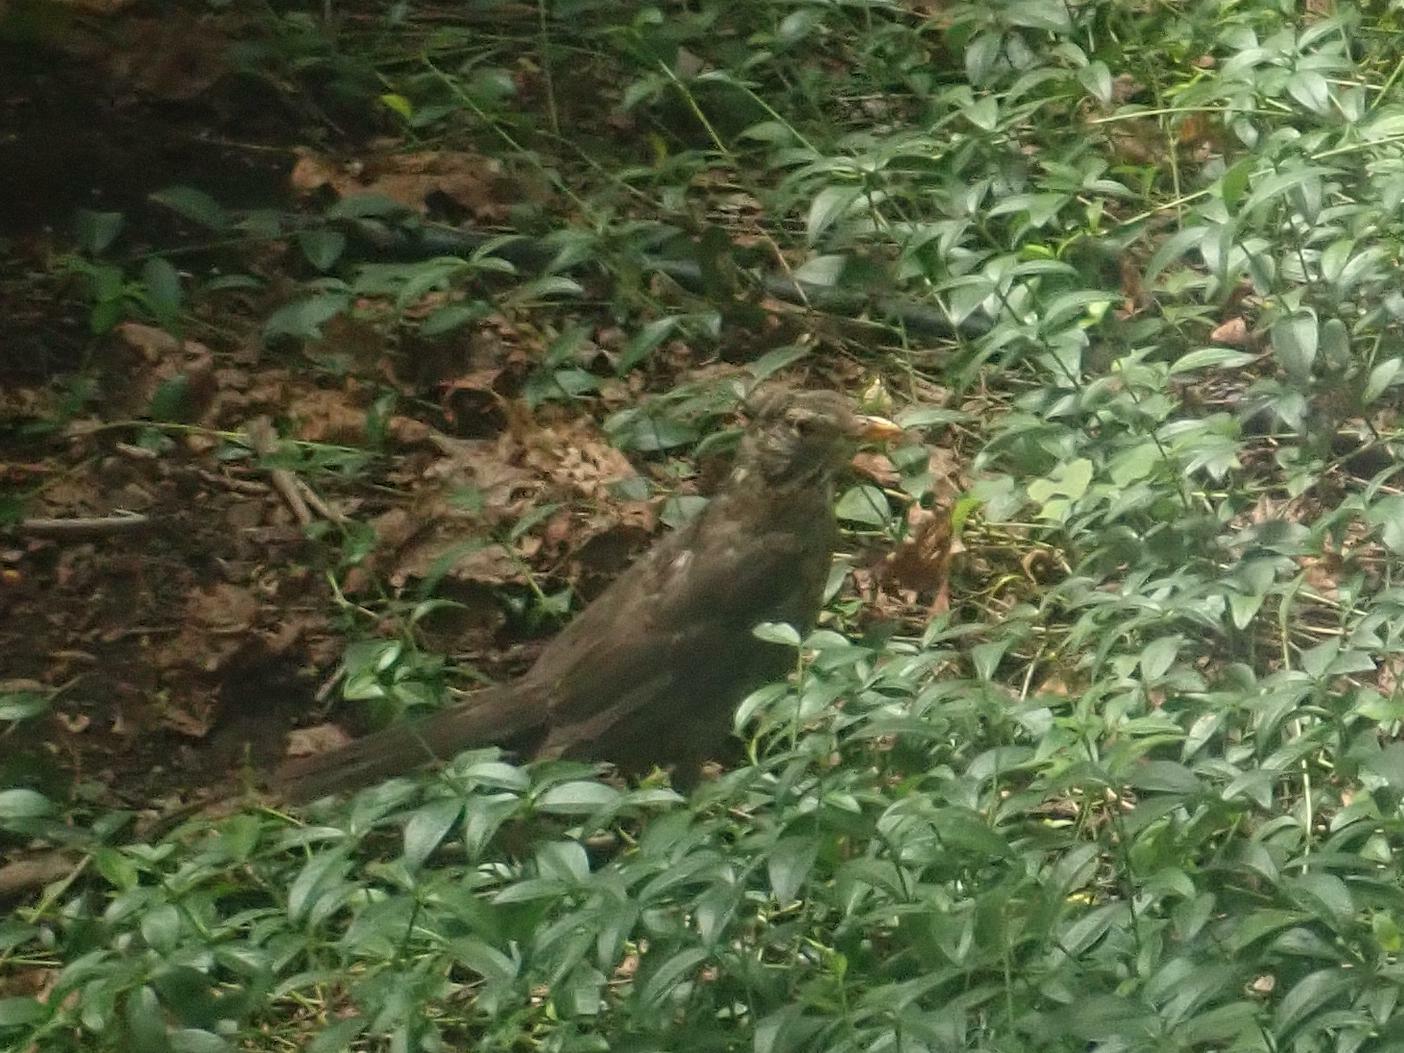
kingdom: Animalia
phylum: Chordata
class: Aves
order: Passeriformes
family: Turdidae
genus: Turdus
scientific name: Turdus merula
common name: Common blackbird
